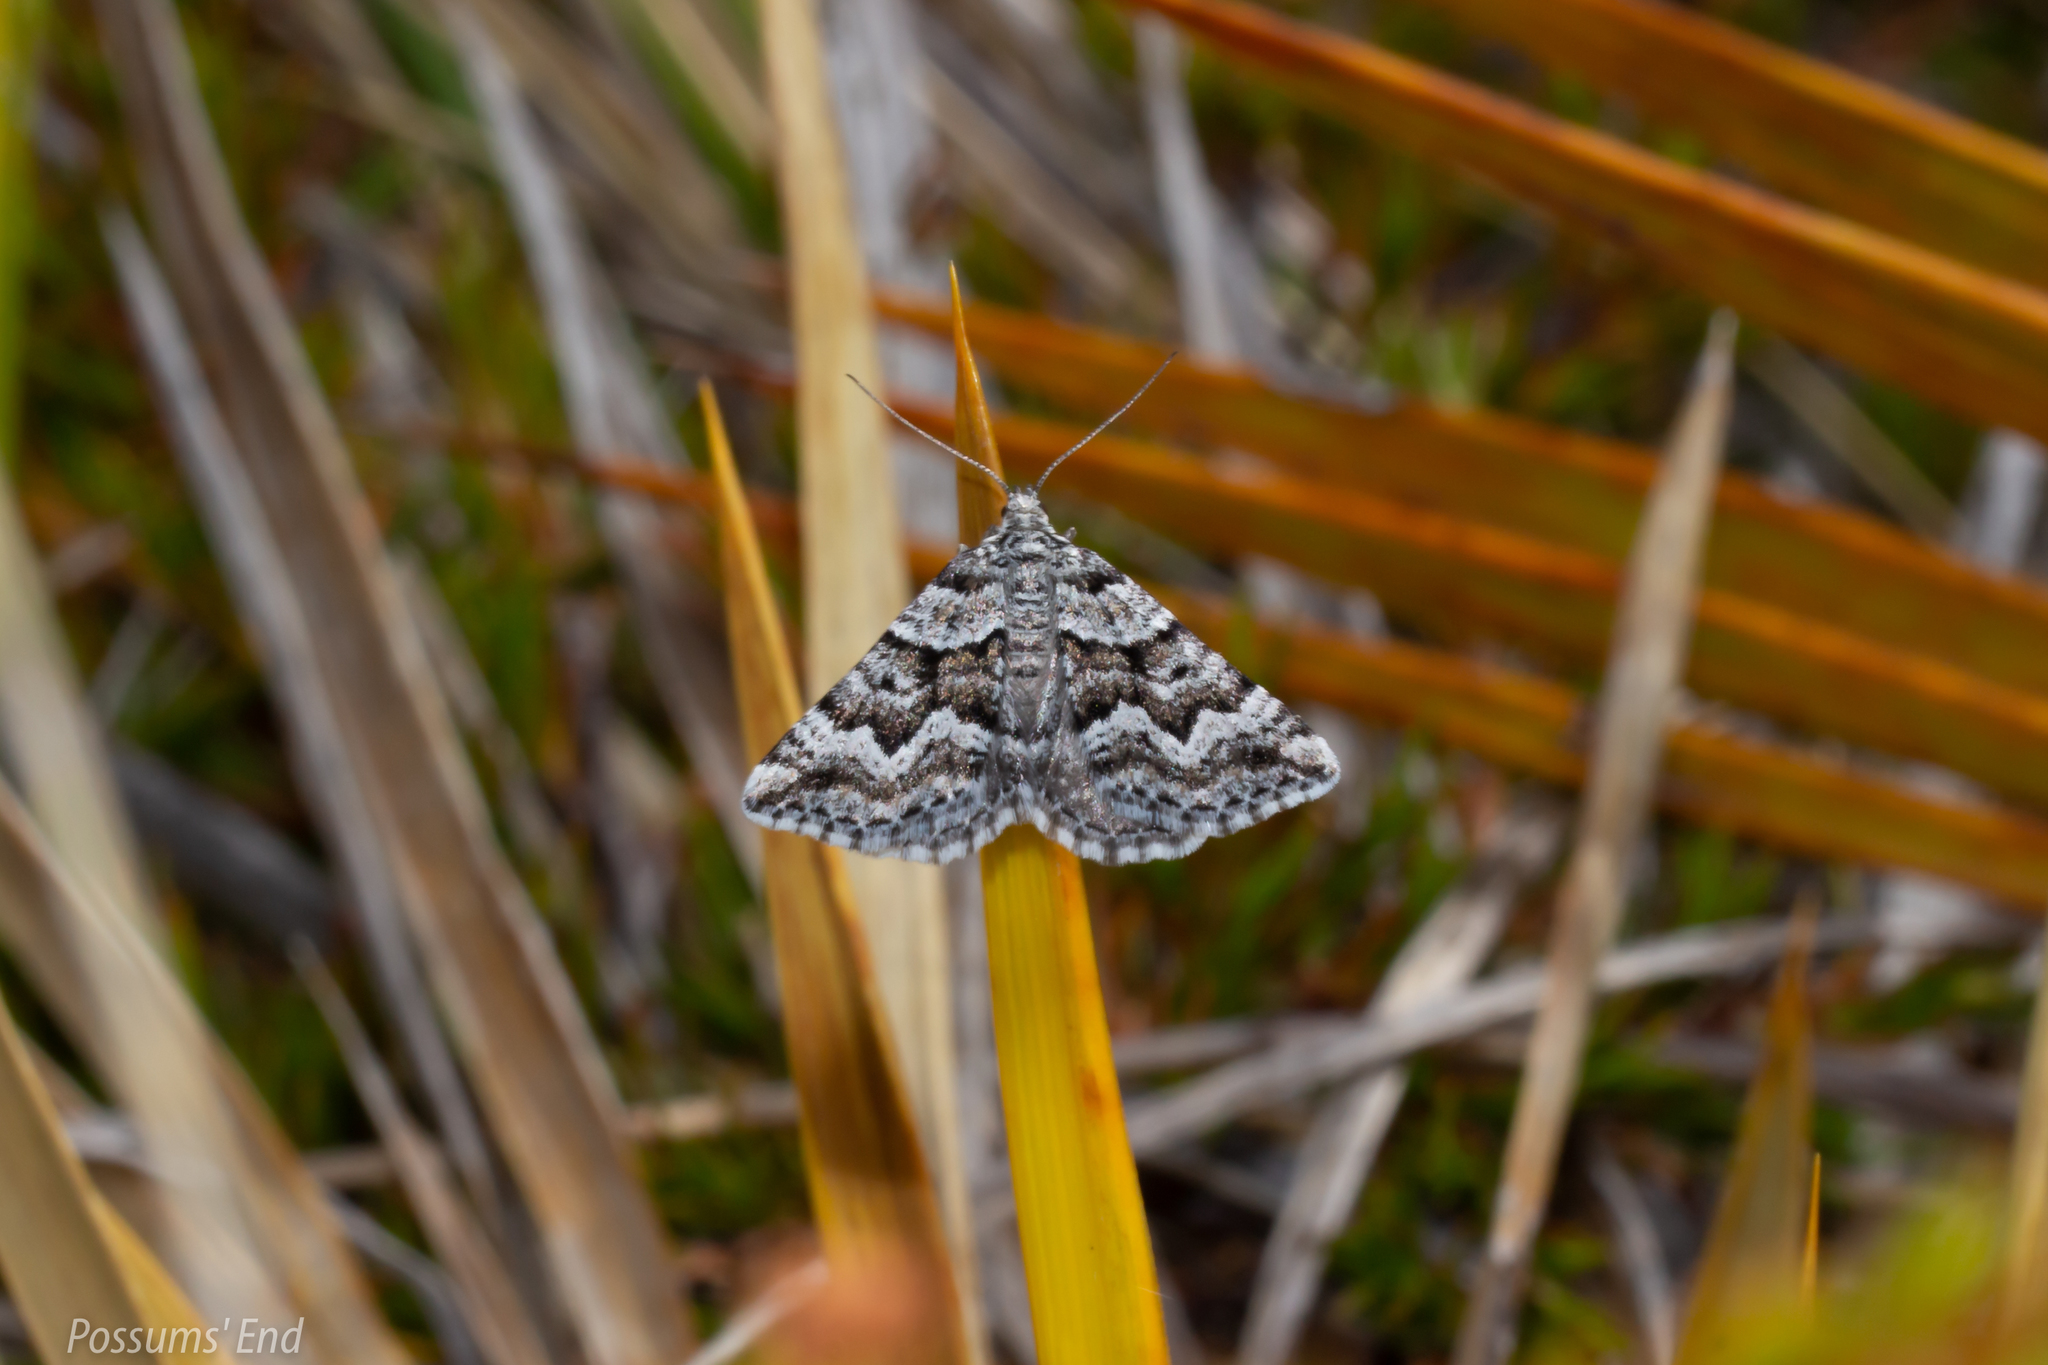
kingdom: Animalia
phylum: Arthropoda
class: Insecta
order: Lepidoptera
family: Geometridae
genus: Aponotoreas
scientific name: Aponotoreas anthracias
